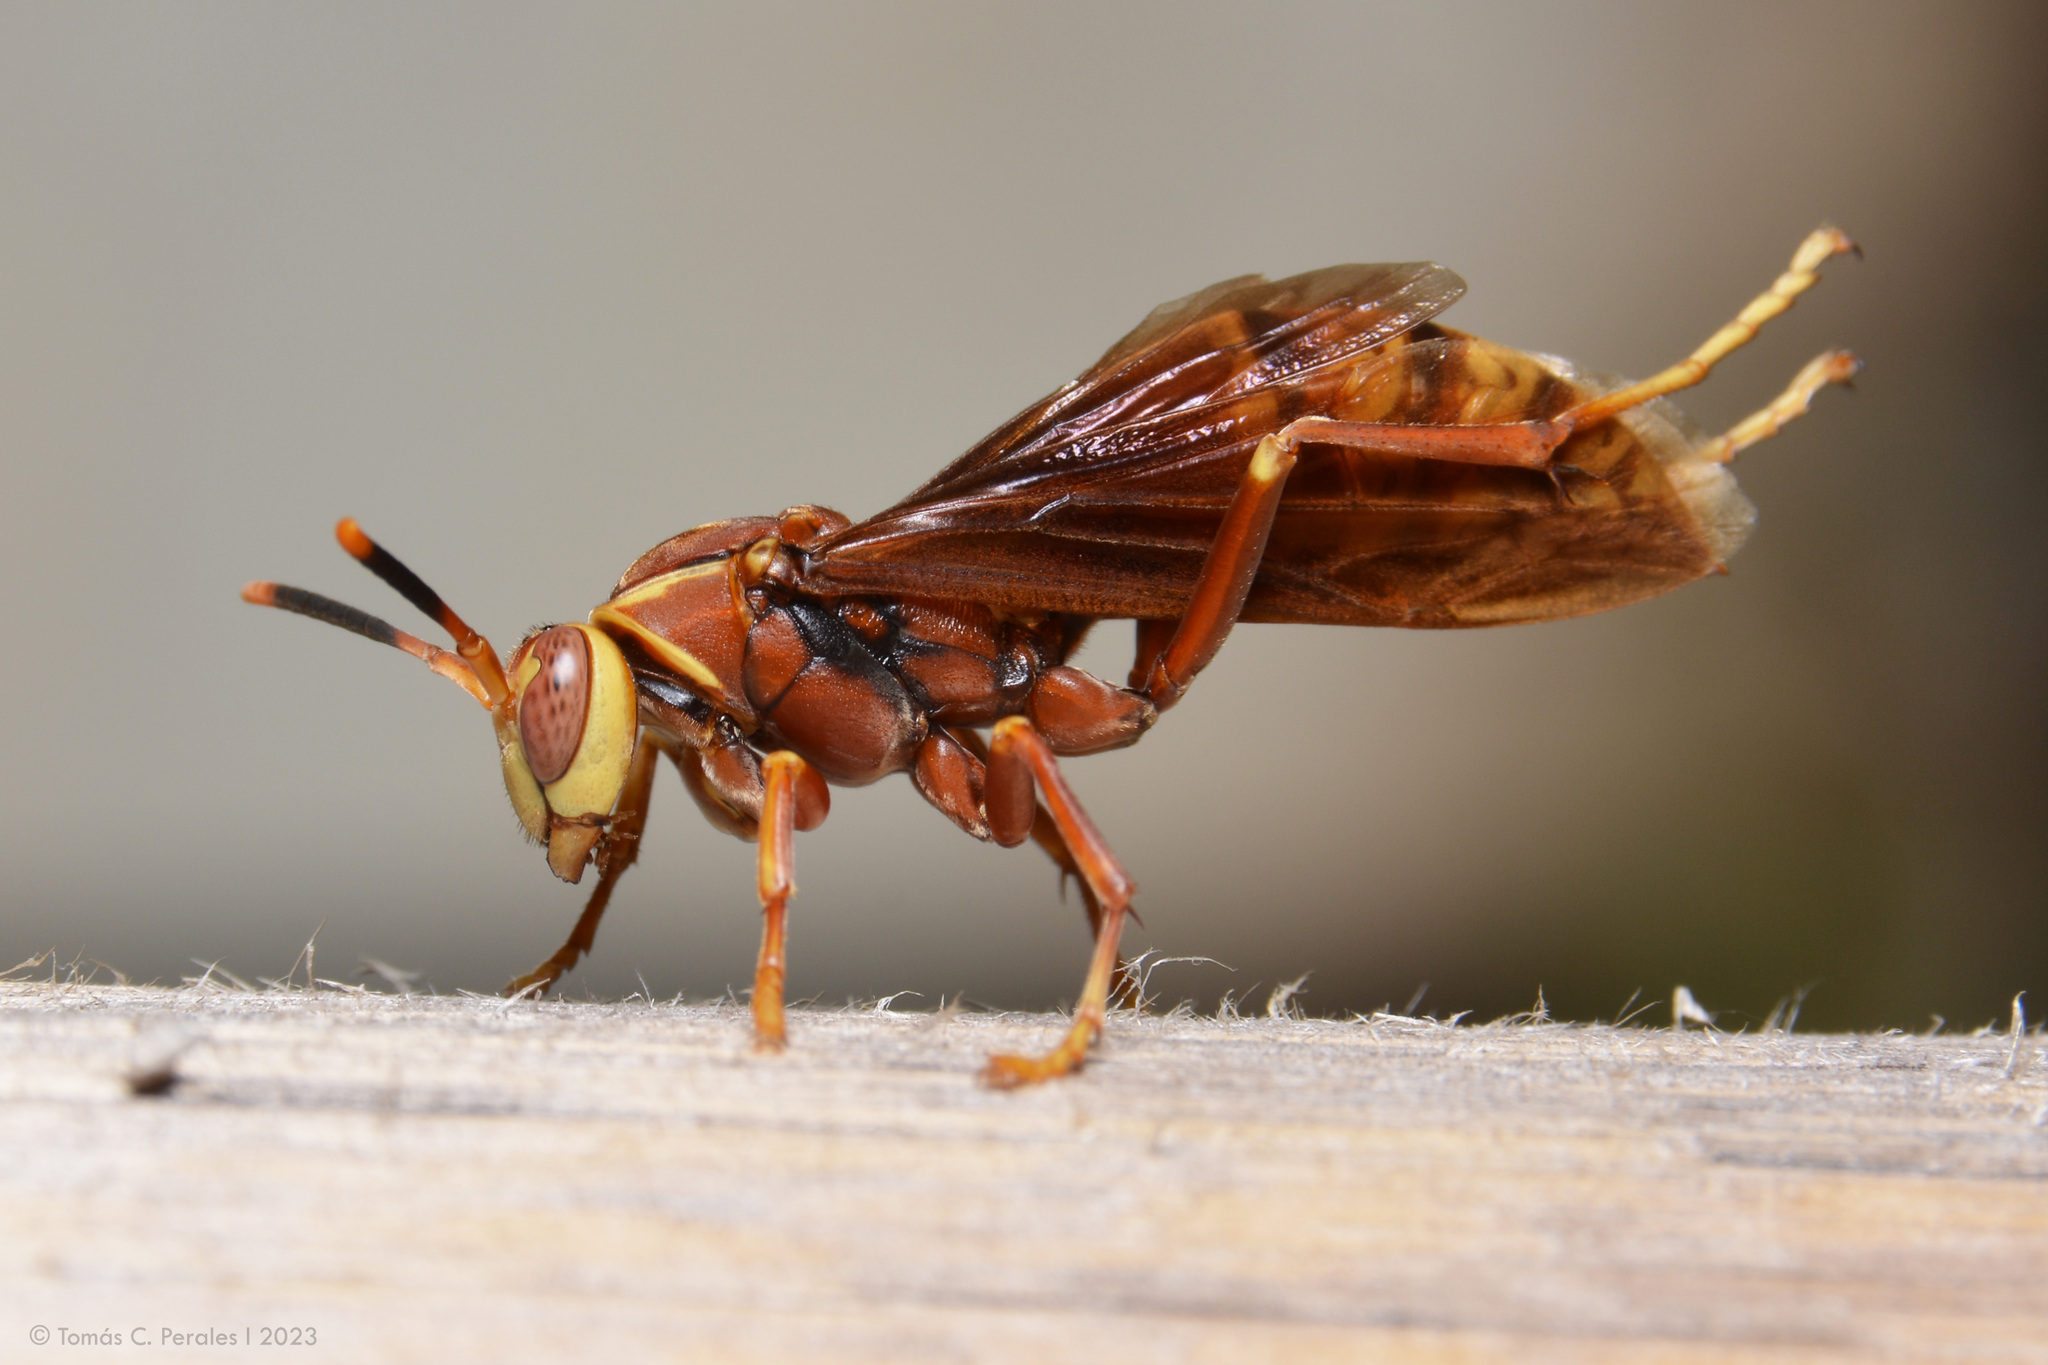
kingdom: Animalia
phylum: Arthropoda
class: Insecta
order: Hymenoptera
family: Eumenidae
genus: Polistes
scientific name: Polistes cavapyta
